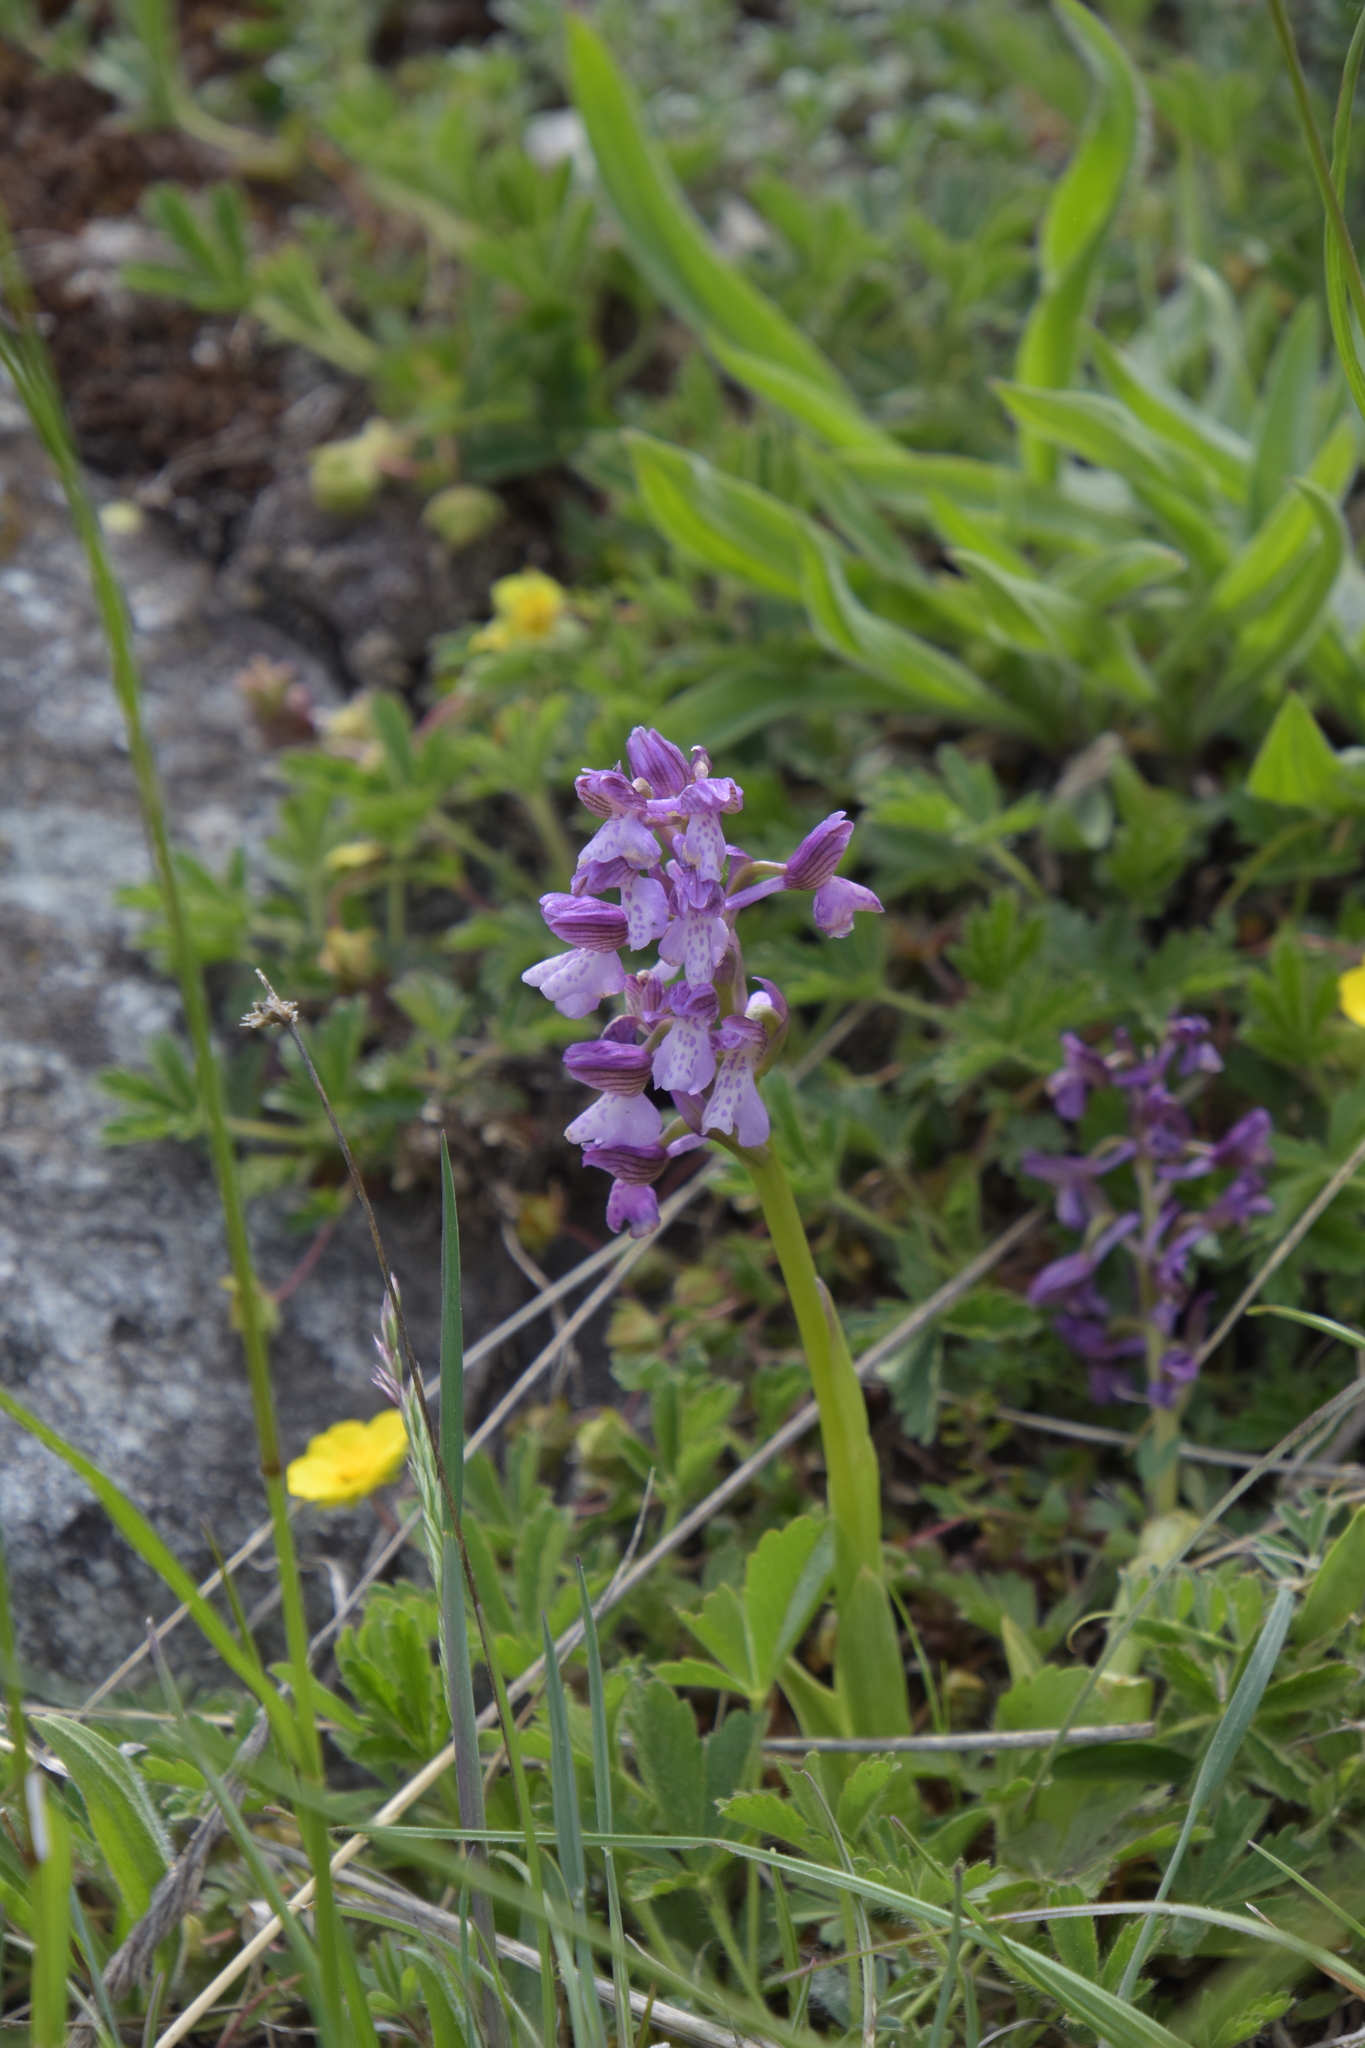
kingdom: Plantae
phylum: Tracheophyta
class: Liliopsida
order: Asparagales
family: Orchidaceae
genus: Anacamptis
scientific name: Anacamptis morio
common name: Green-winged orchid
